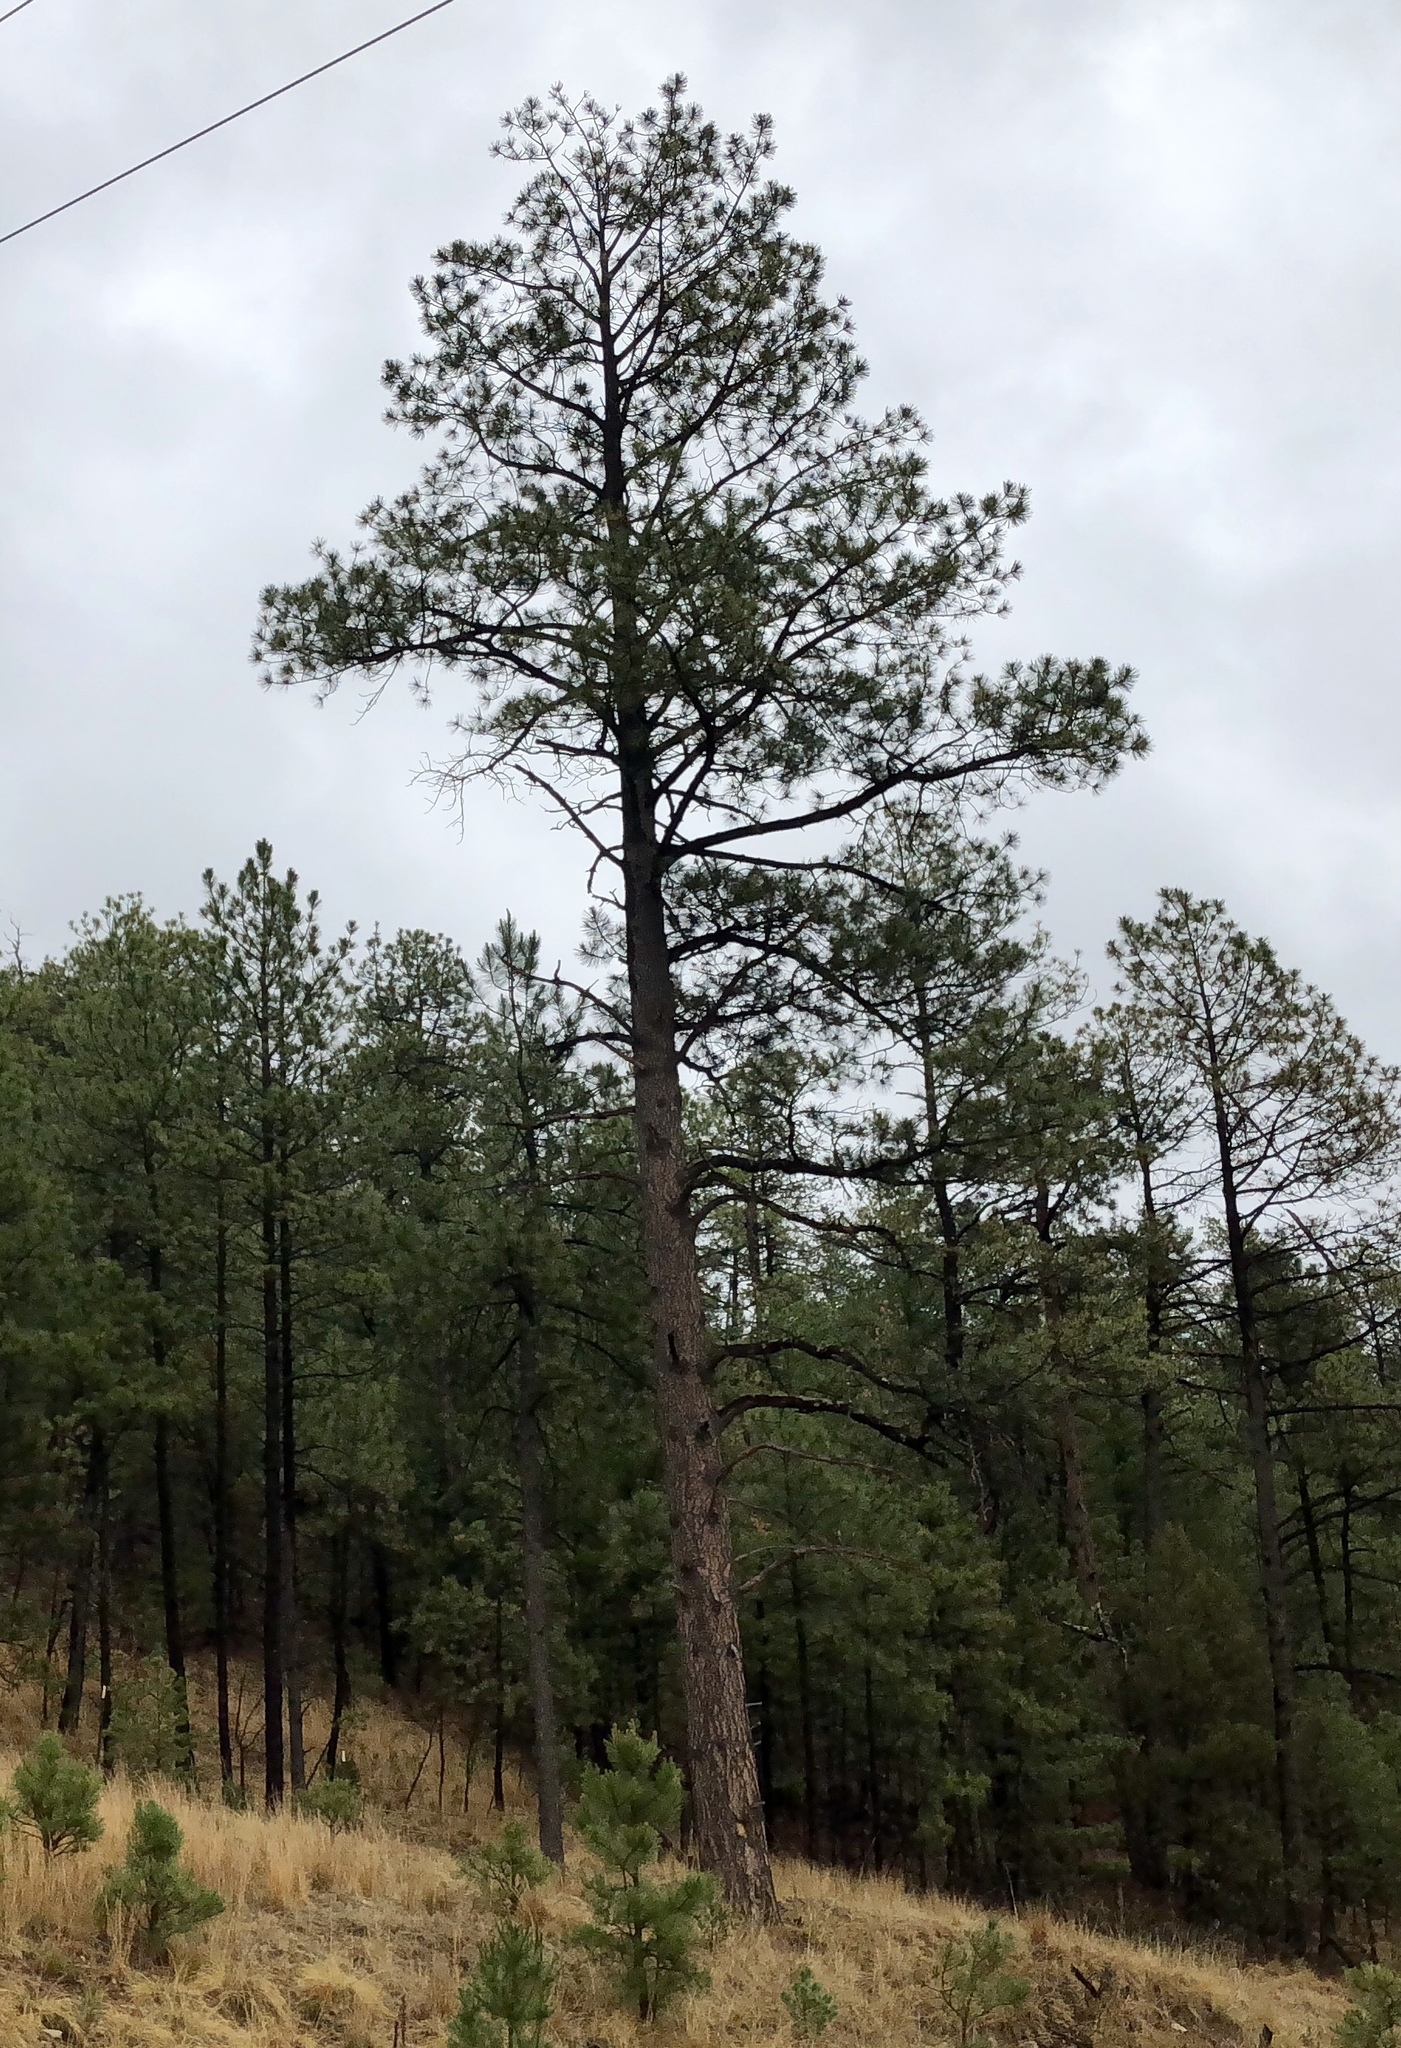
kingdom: Plantae
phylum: Tracheophyta
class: Pinopsida
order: Pinales
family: Pinaceae
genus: Pinus
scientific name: Pinus ponderosa
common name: Western yellow-pine
